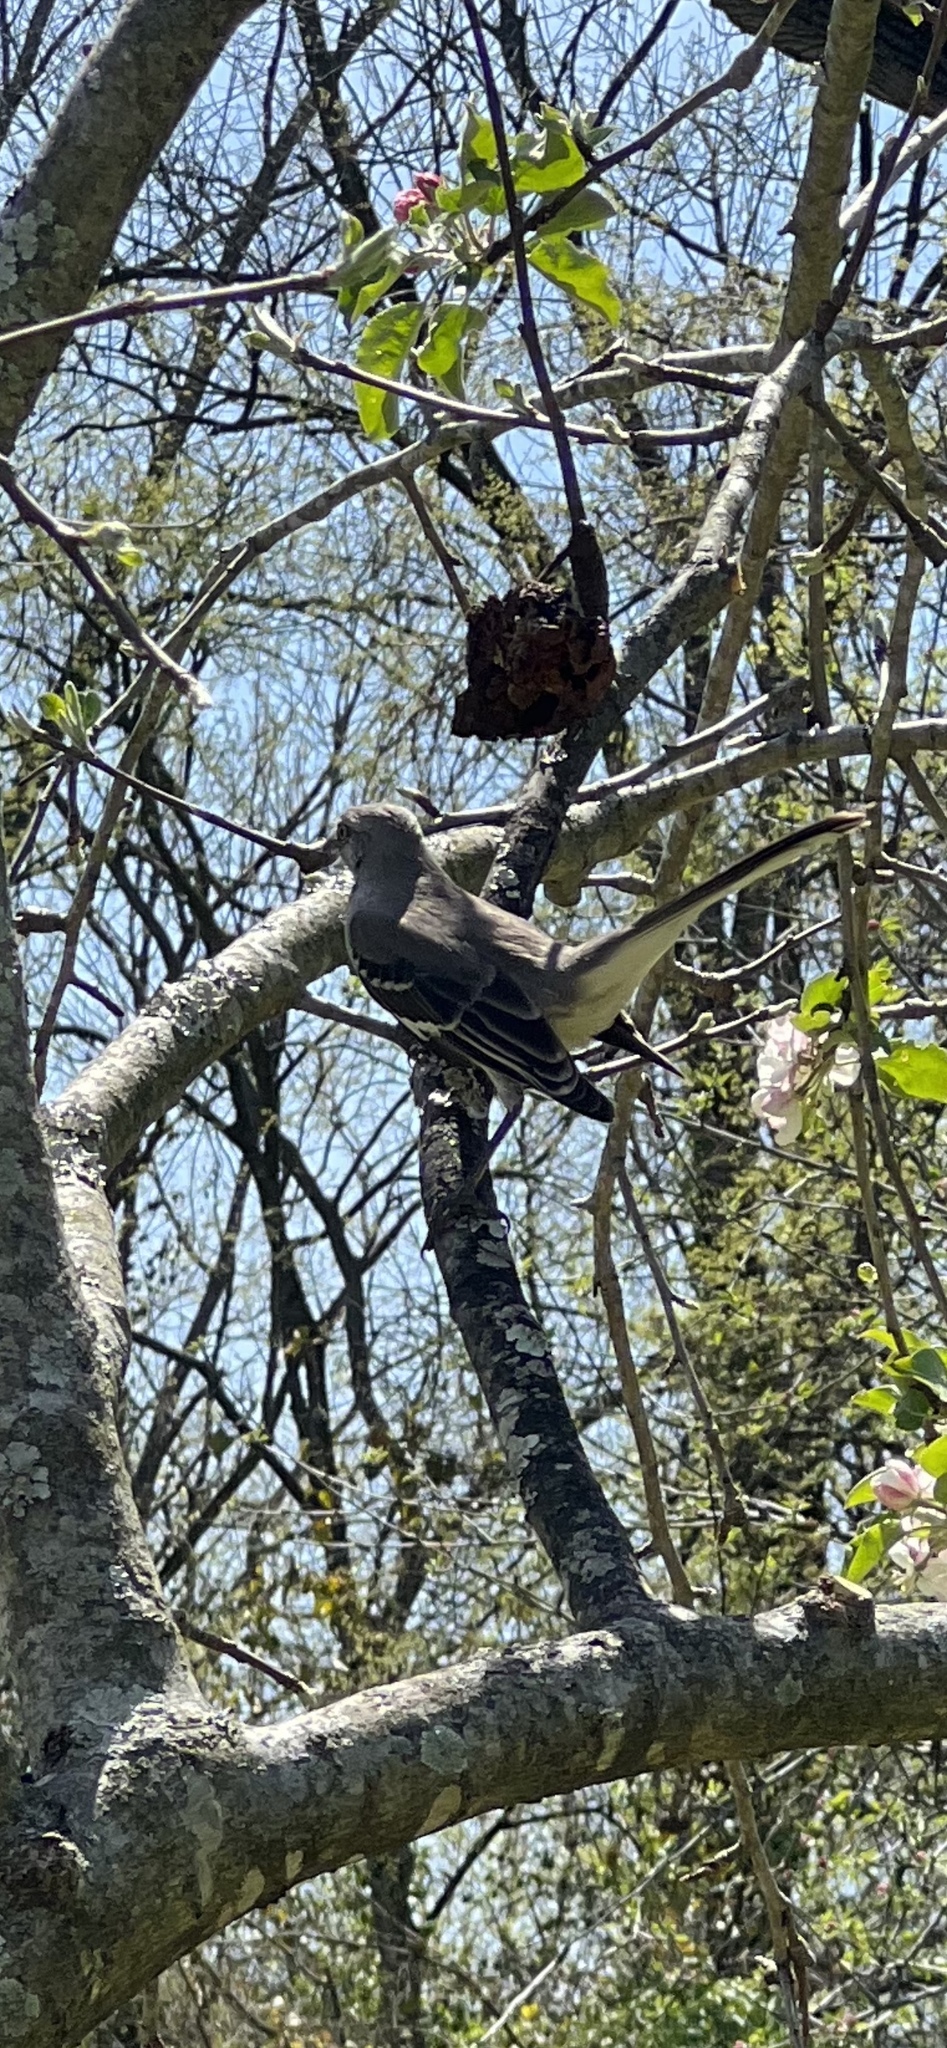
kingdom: Animalia
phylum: Chordata
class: Aves
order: Passeriformes
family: Mimidae
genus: Mimus
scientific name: Mimus polyglottos
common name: Northern mockingbird
